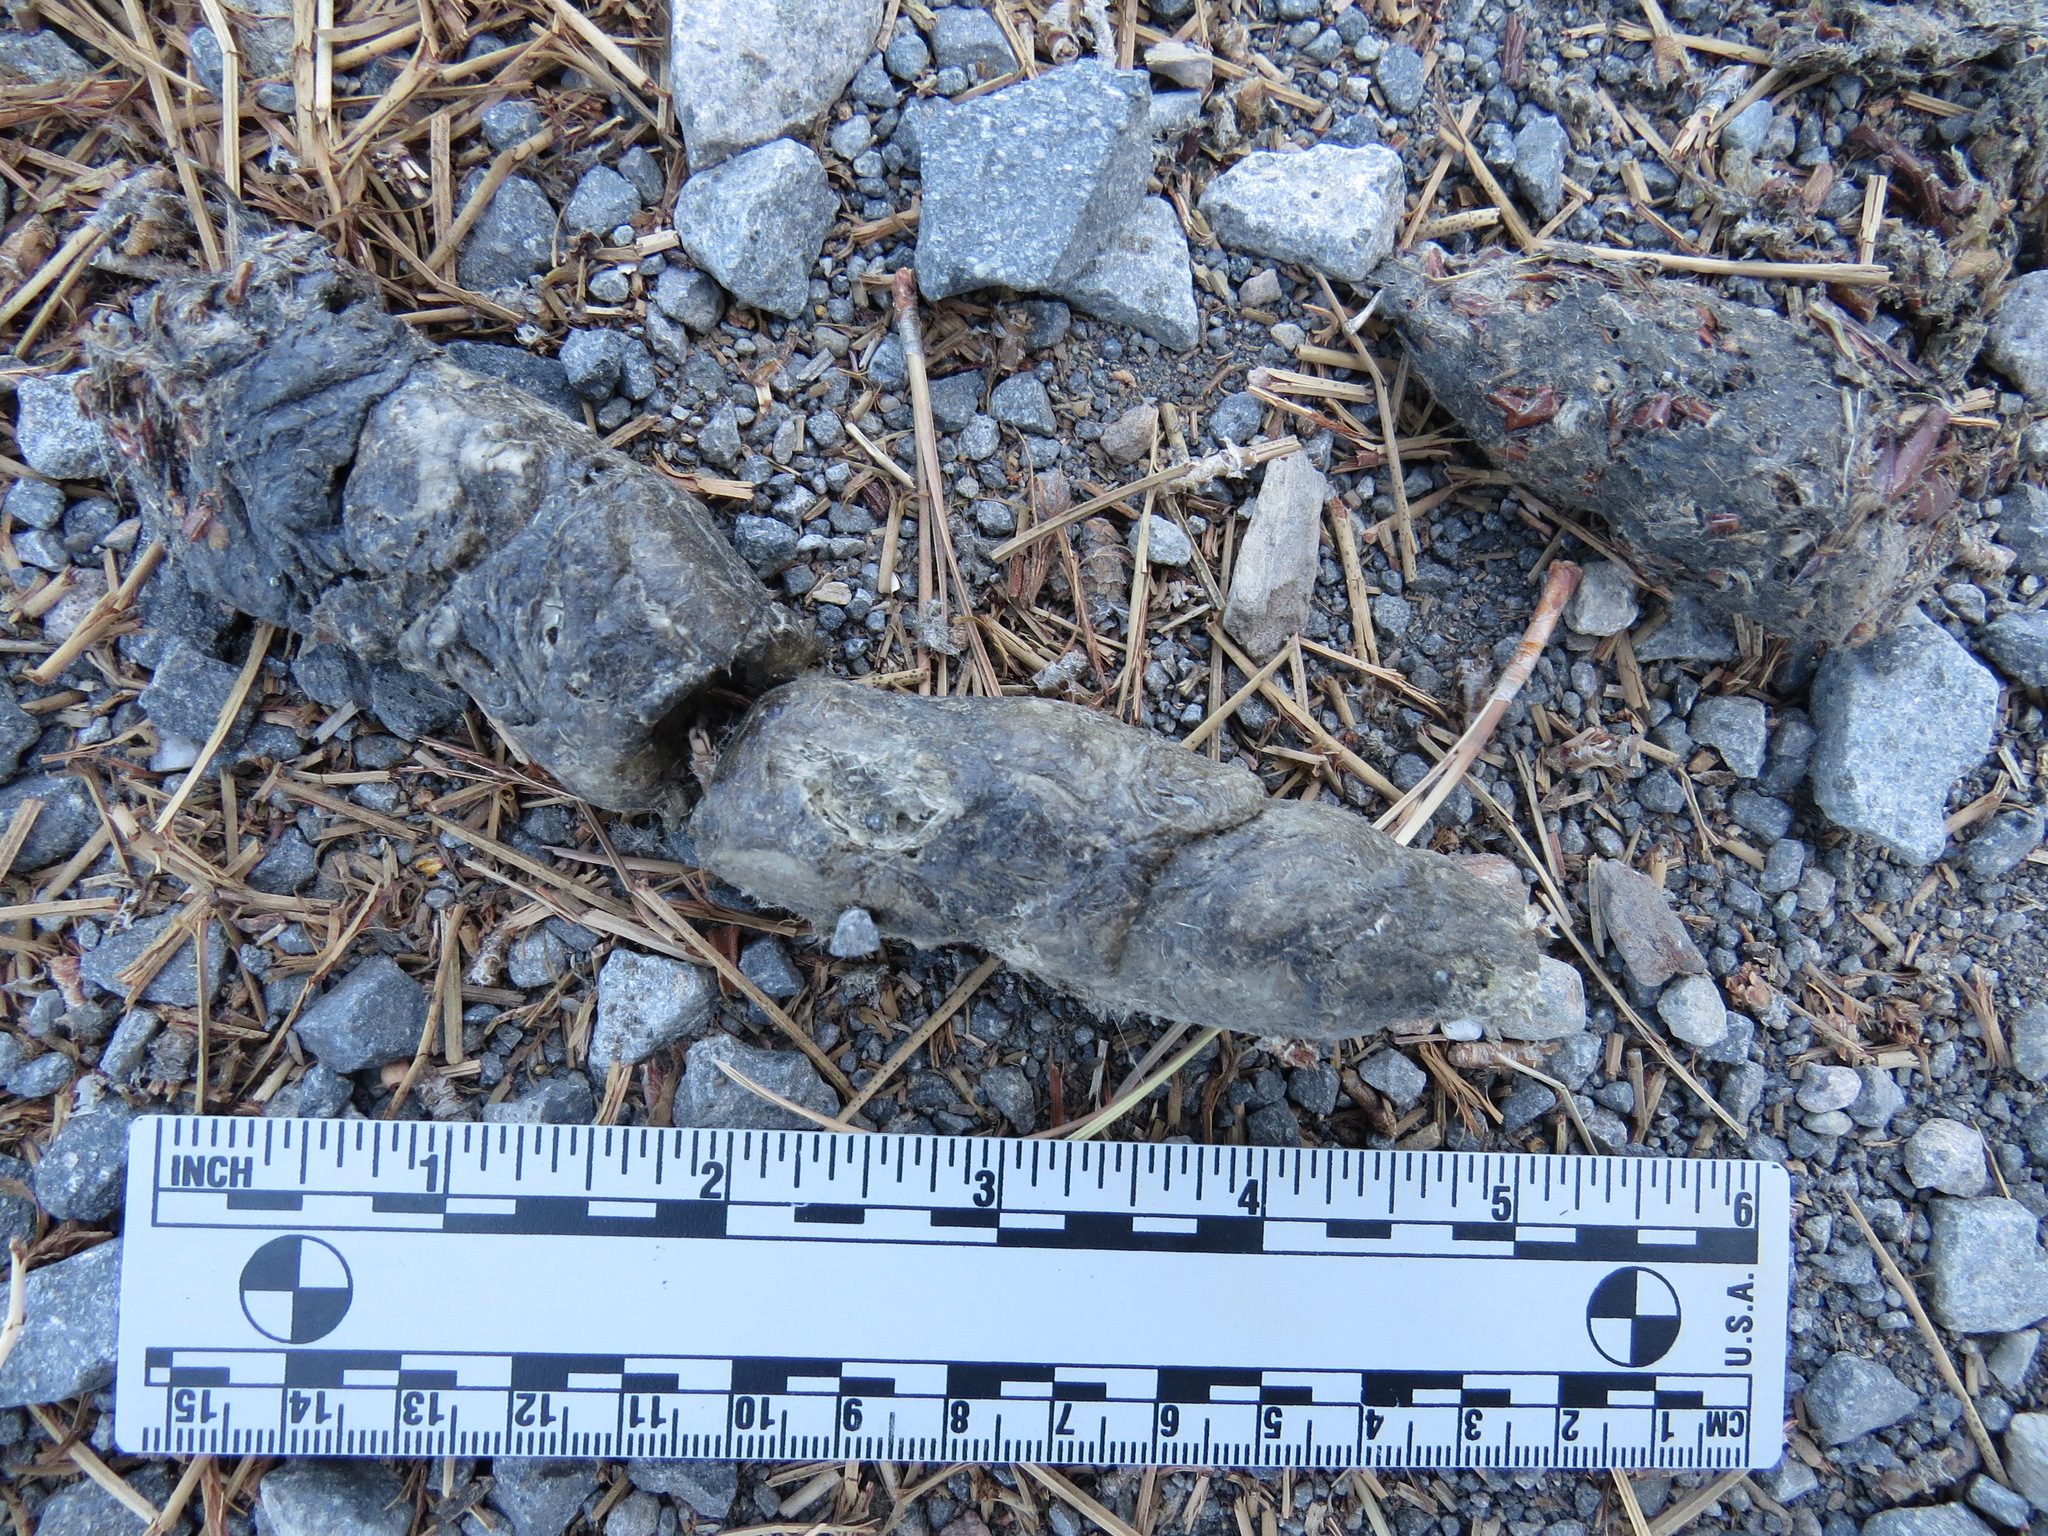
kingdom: Animalia
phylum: Chordata
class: Mammalia
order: Carnivora
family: Canidae
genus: Canis
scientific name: Canis latrans
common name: Coyote
